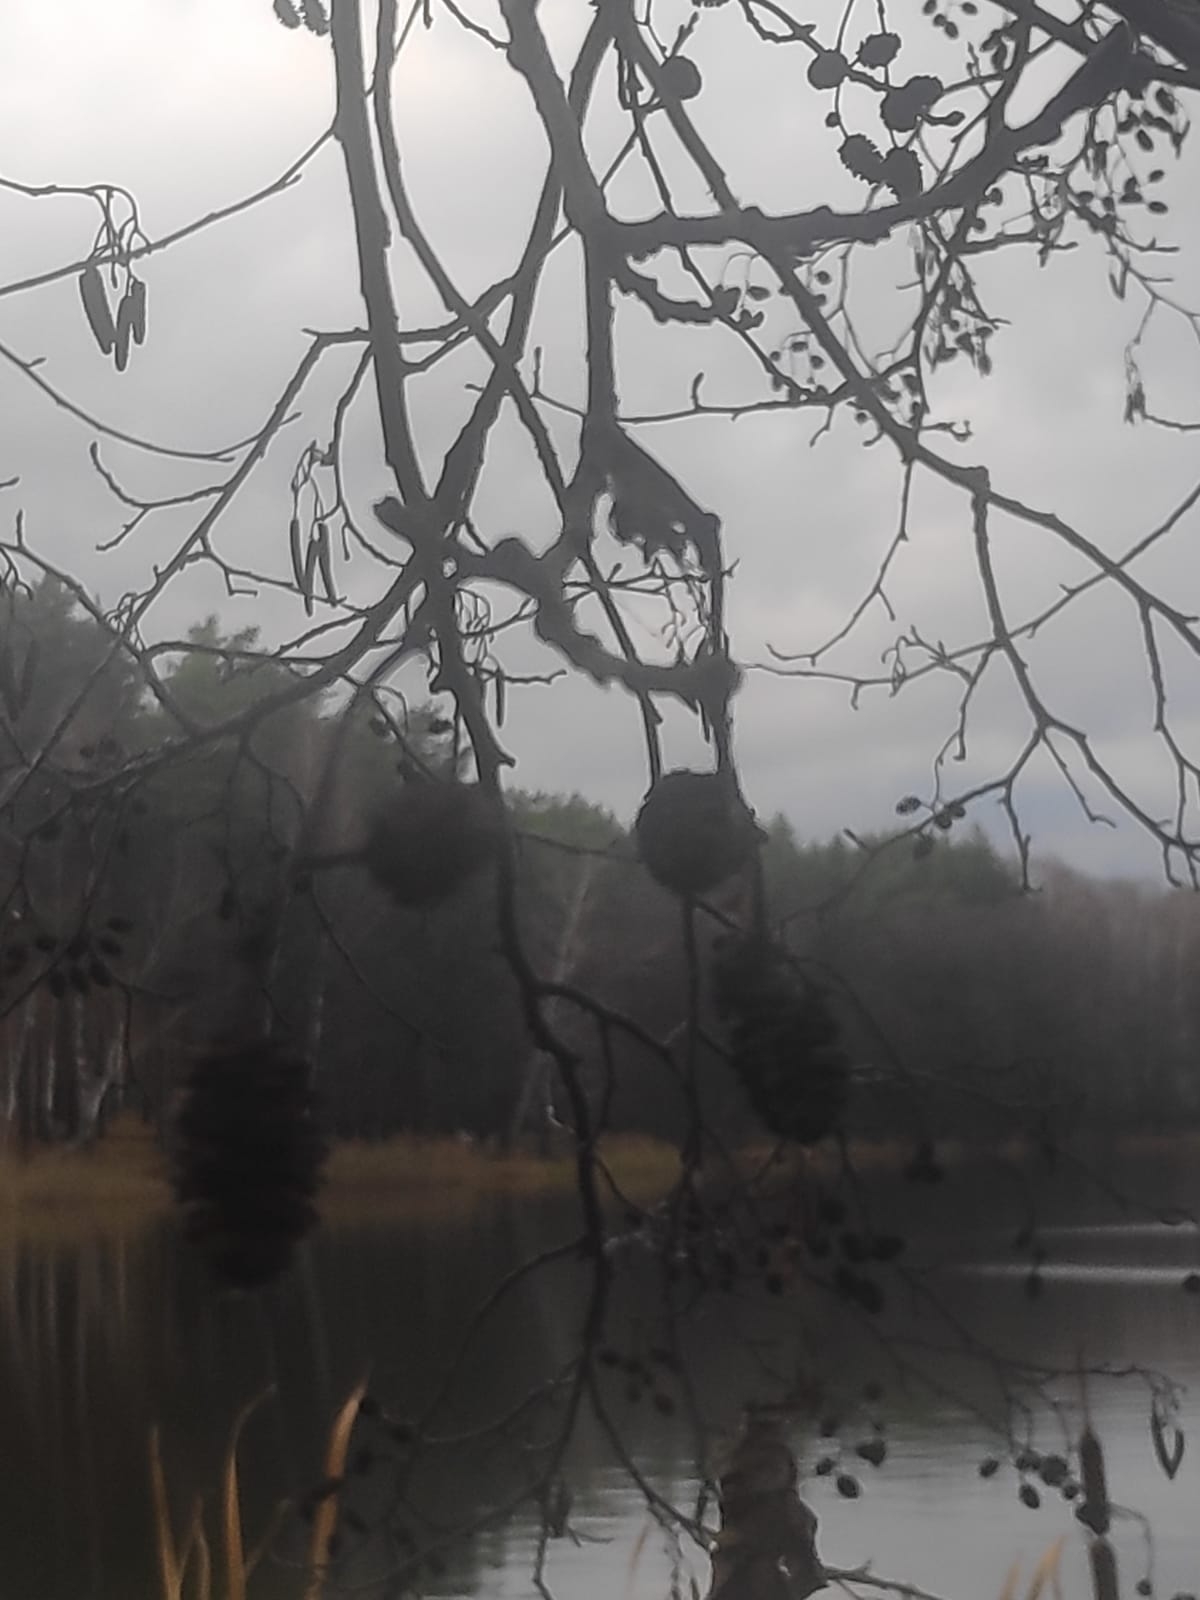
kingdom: Plantae
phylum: Tracheophyta
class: Magnoliopsida
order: Fagales
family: Betulaceae
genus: Alnus
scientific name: Alnus glutinosa
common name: Black alder
